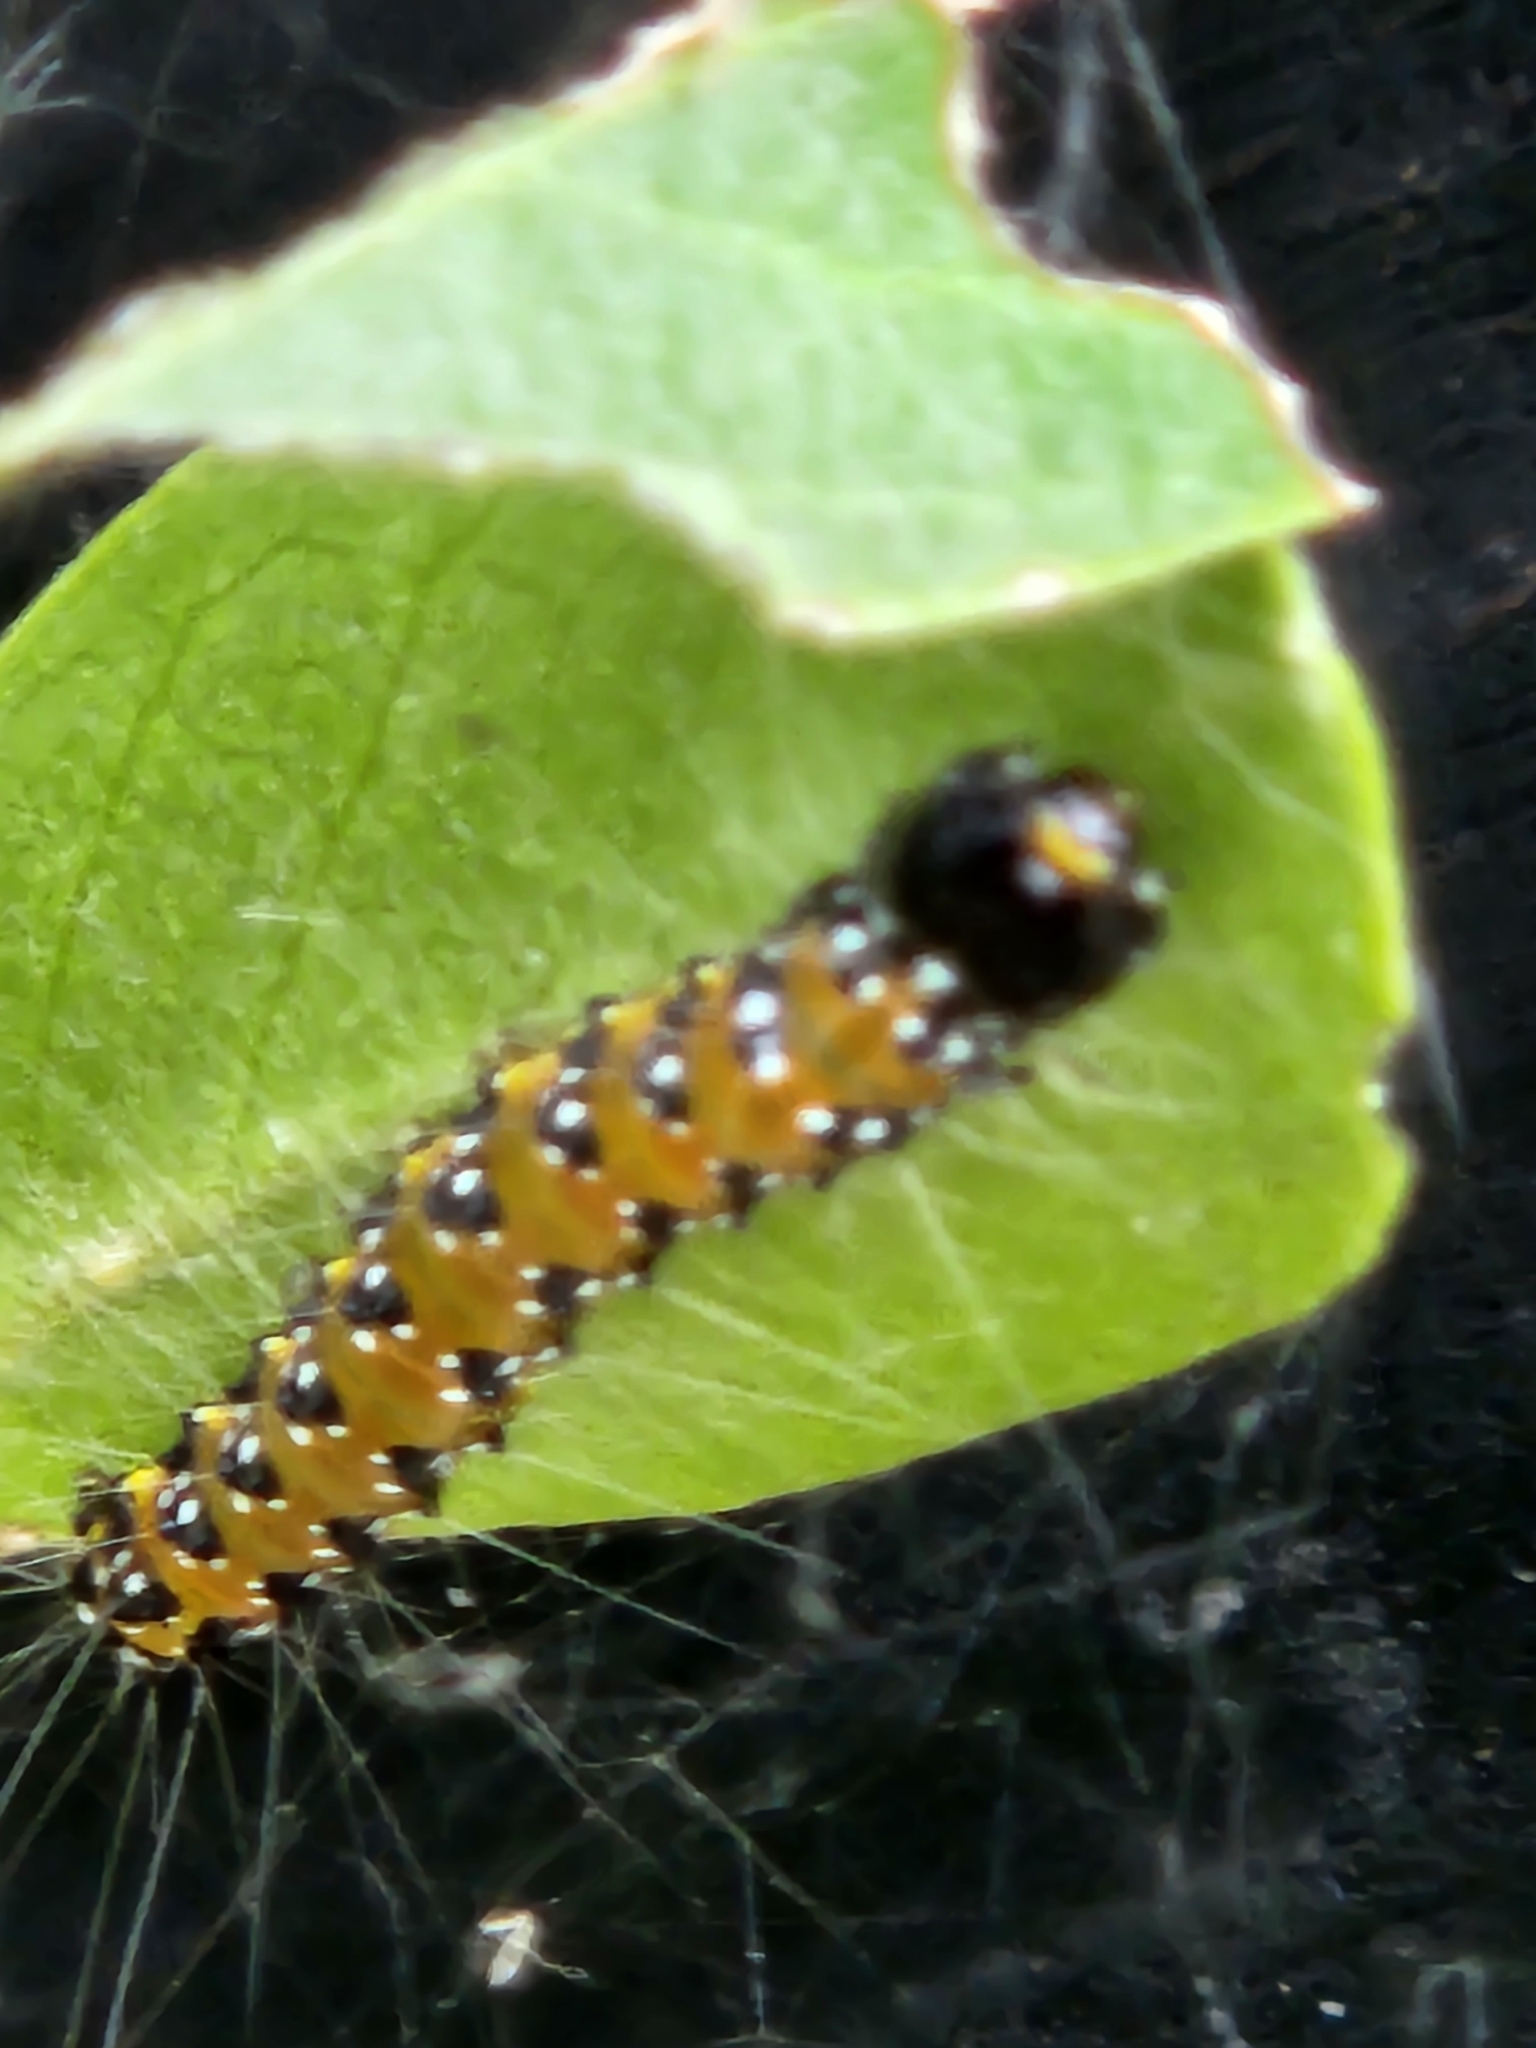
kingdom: Animalia
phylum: Arthropoda
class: Insecta
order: Lepidoptera
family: Crambidae
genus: Uresiphita
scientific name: Uresiphita reversalis
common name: Genista broom moth
